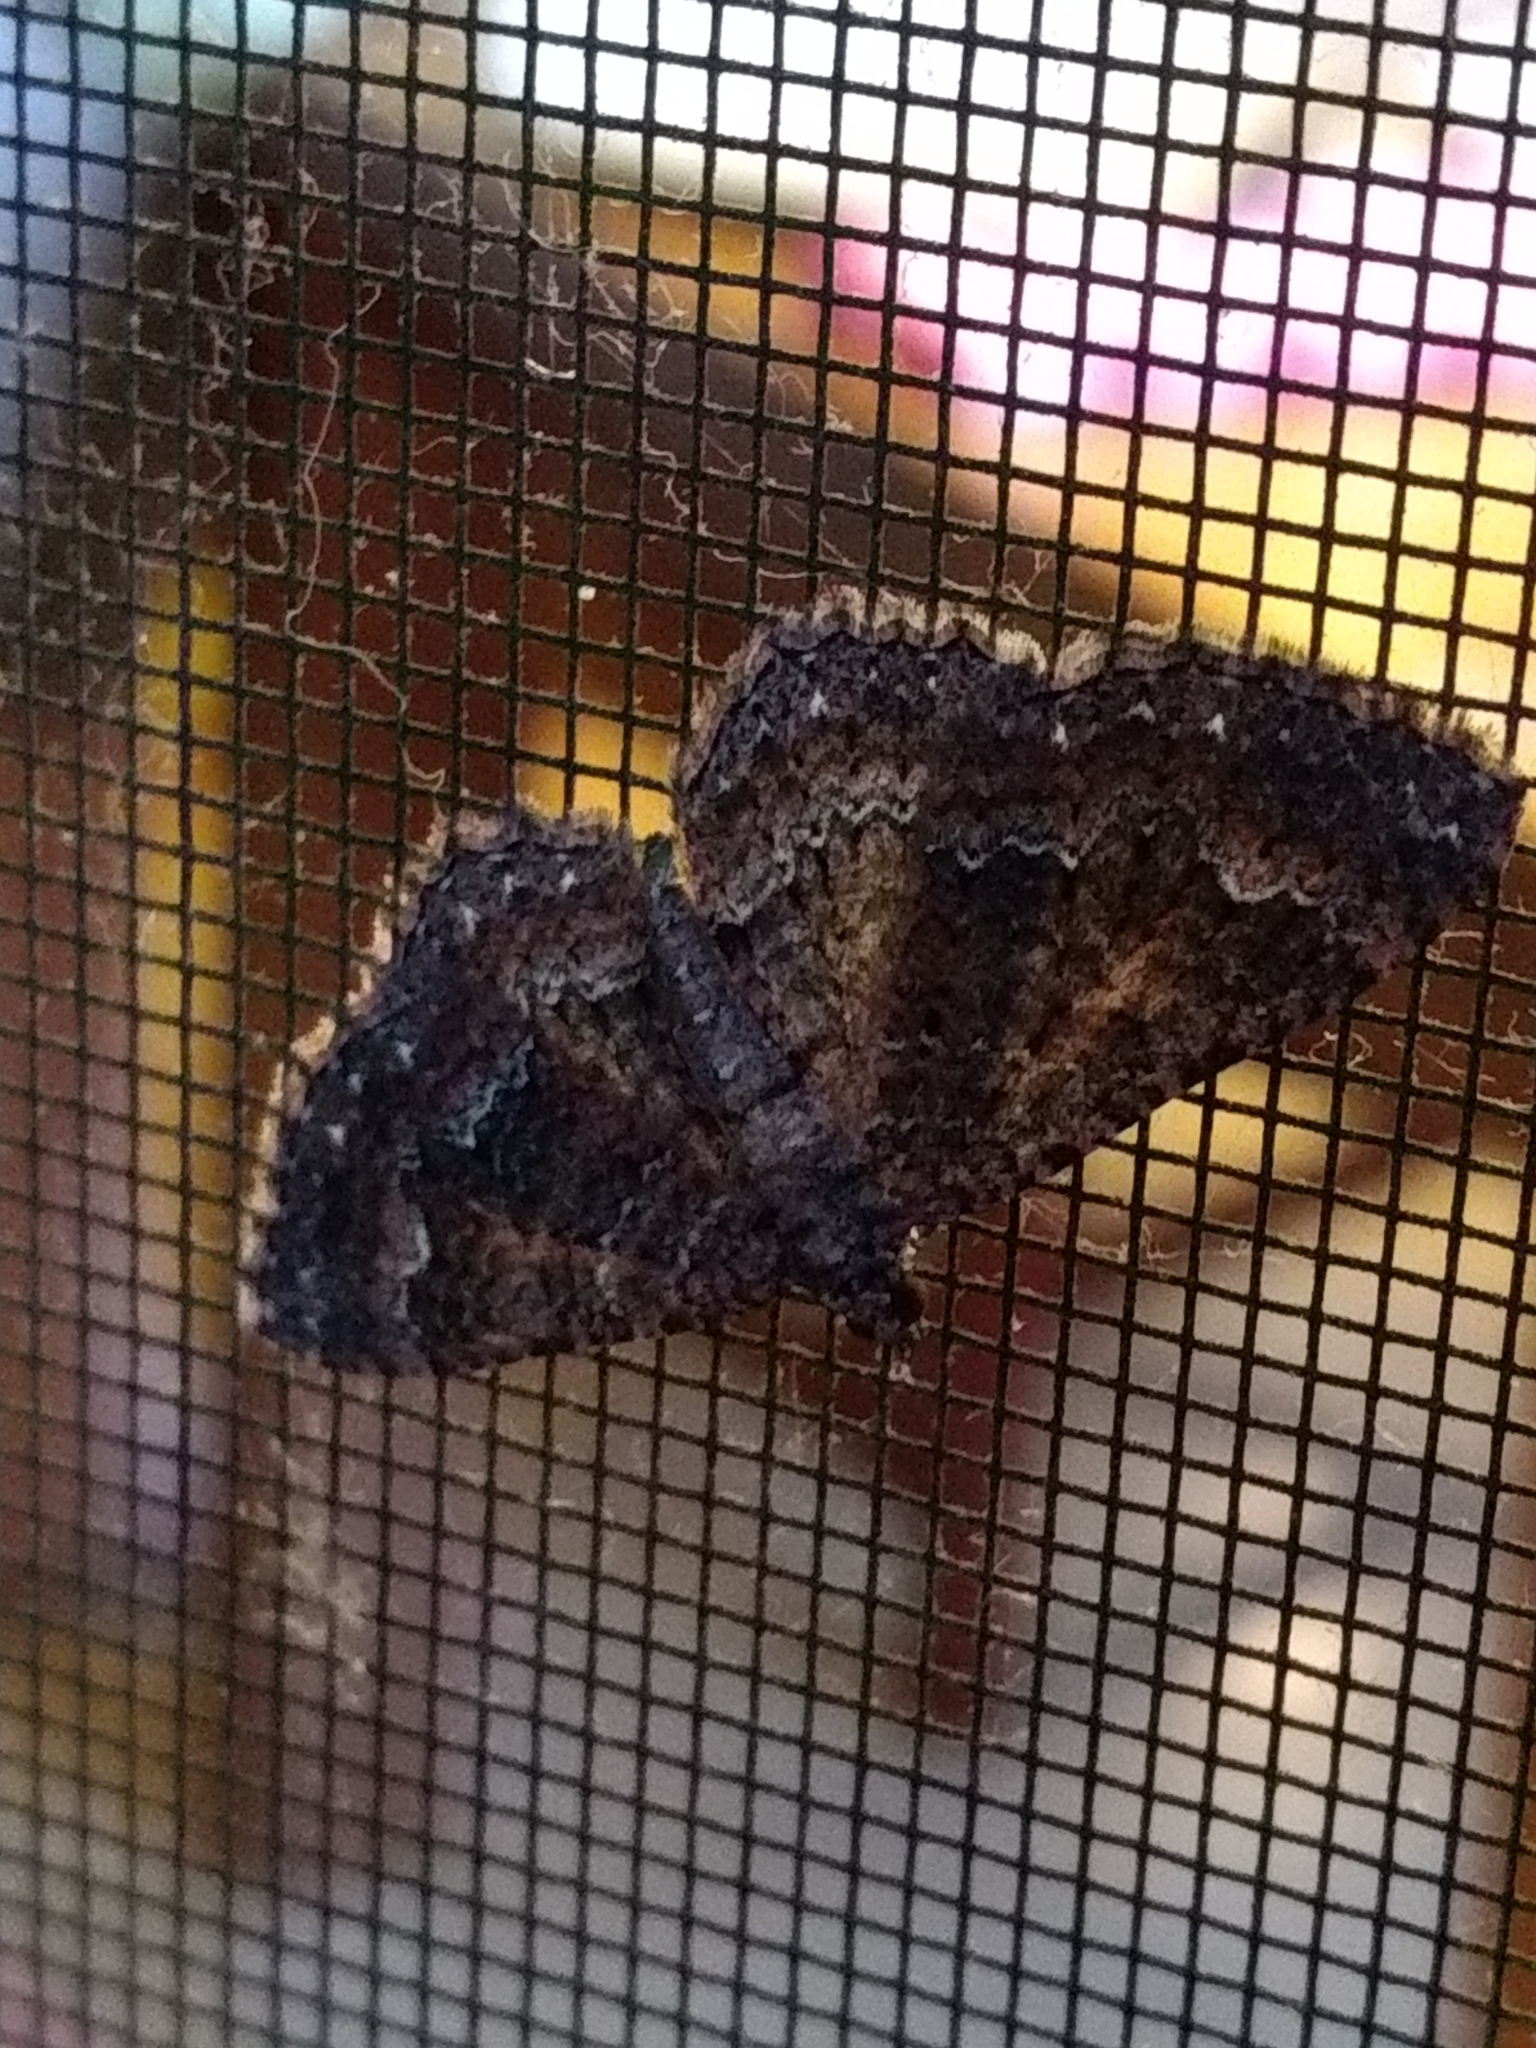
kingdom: Animalia
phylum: Arthropoda
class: Insecta
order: Lepidoptera
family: Geometridae
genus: Disclisioprocta
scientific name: Disclisioprocta stellata
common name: Somber carpet
